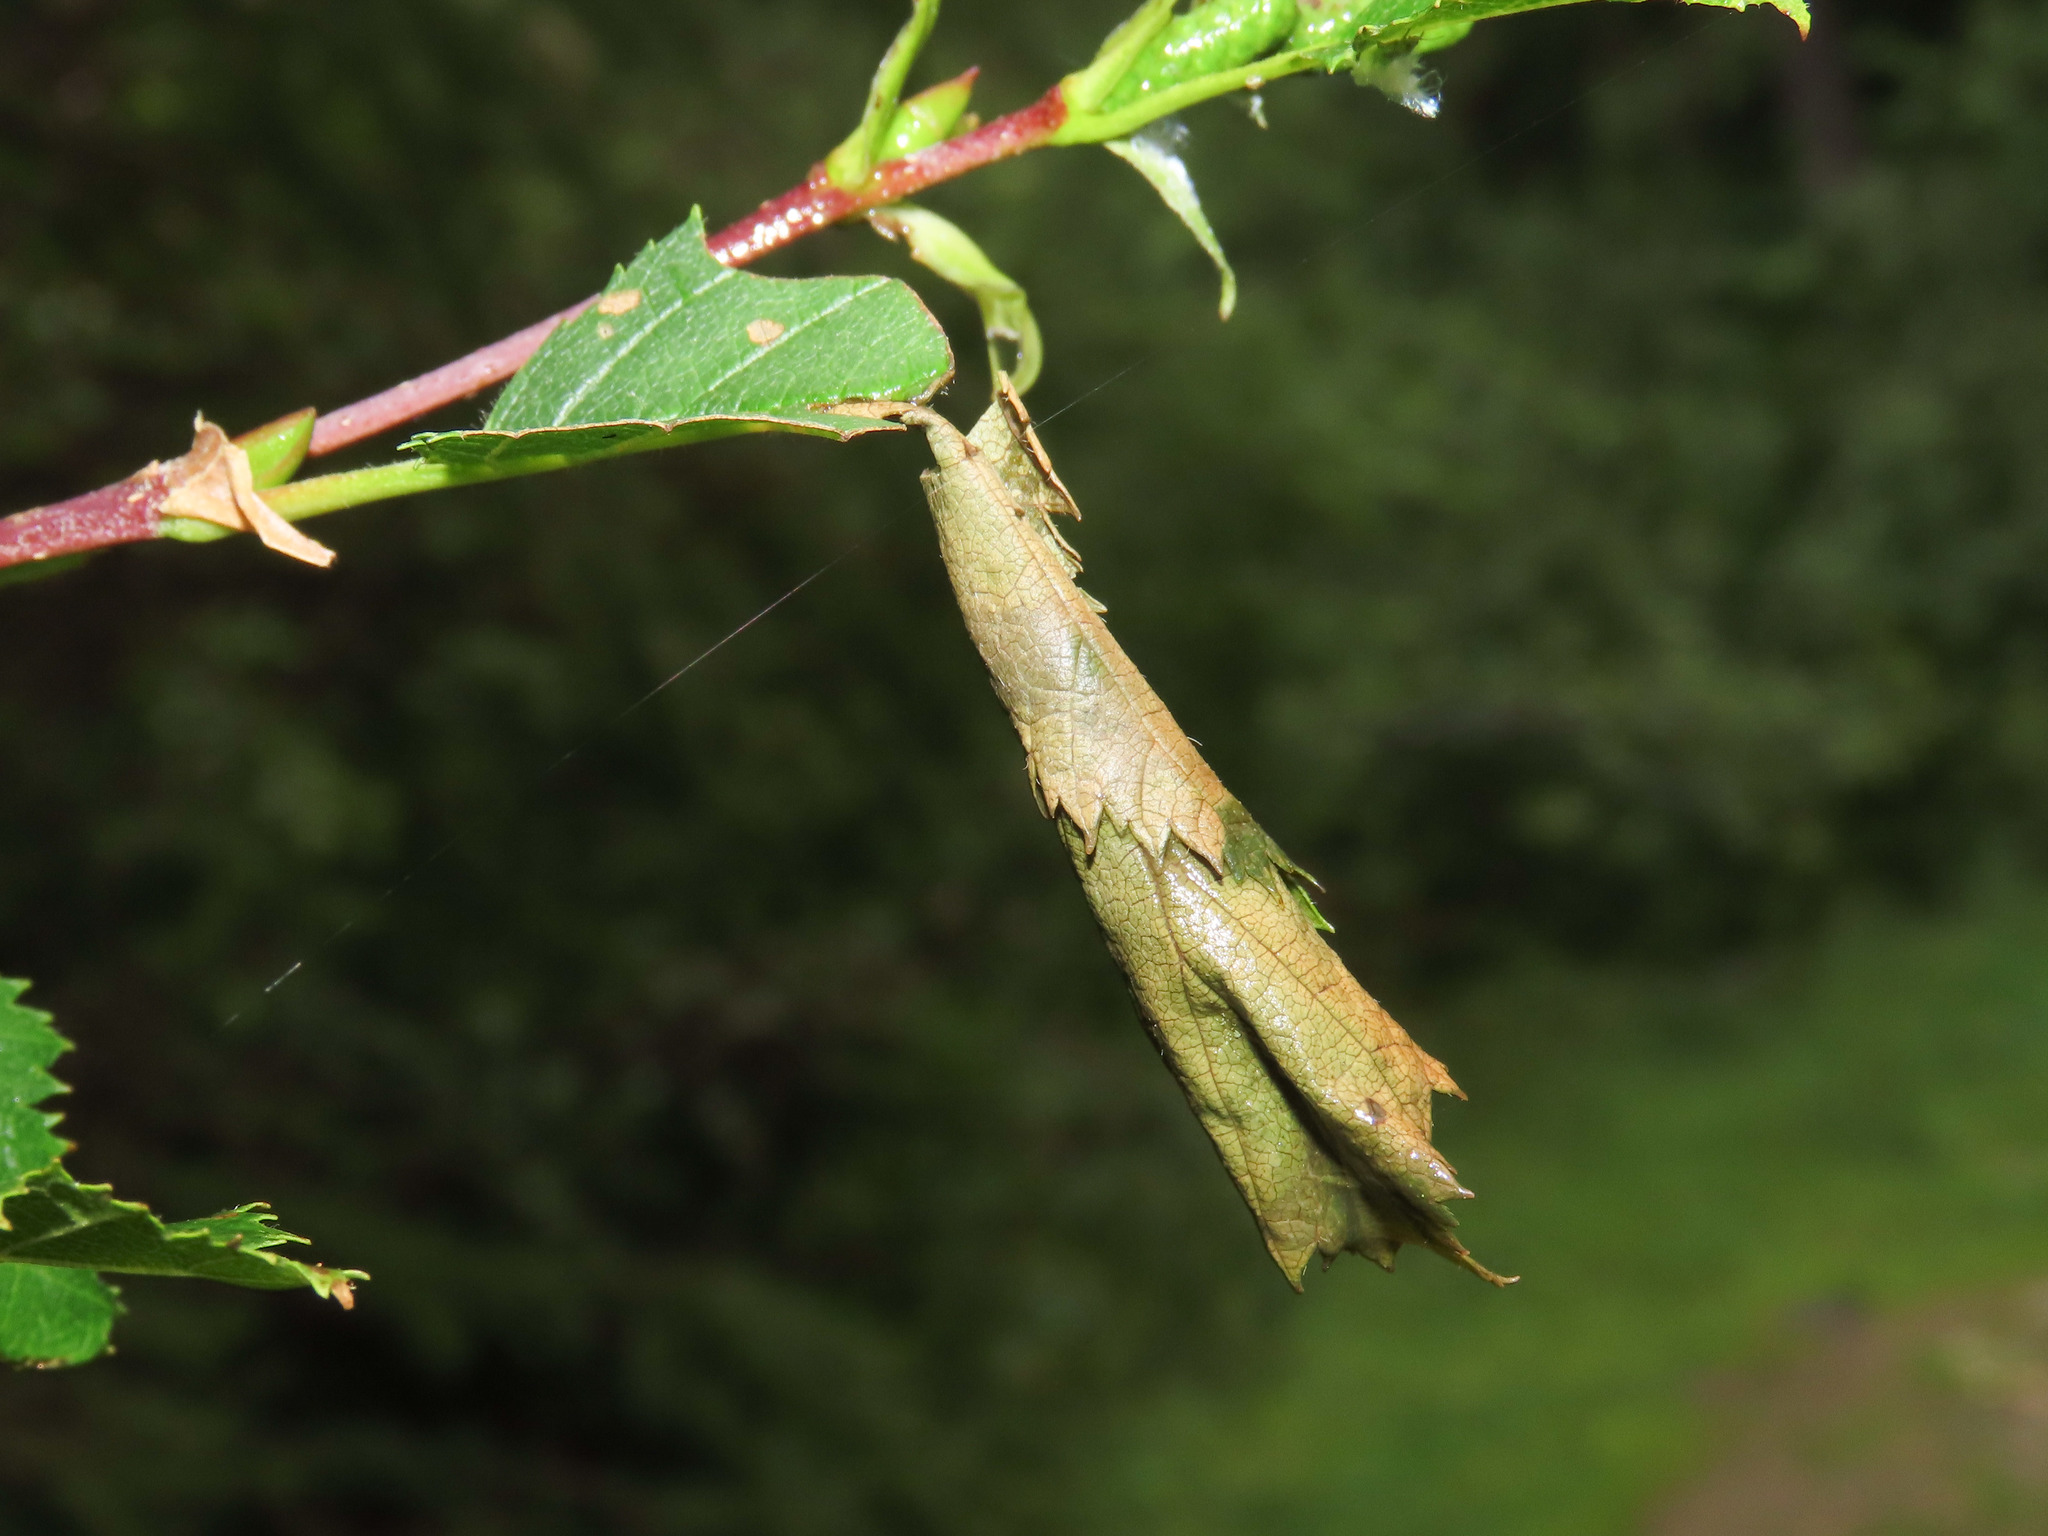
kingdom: Animalia
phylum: Arthropoda
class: Insecta
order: Coleoptera
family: Attelabidae
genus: Deporaus
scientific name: Deporaus betulae
